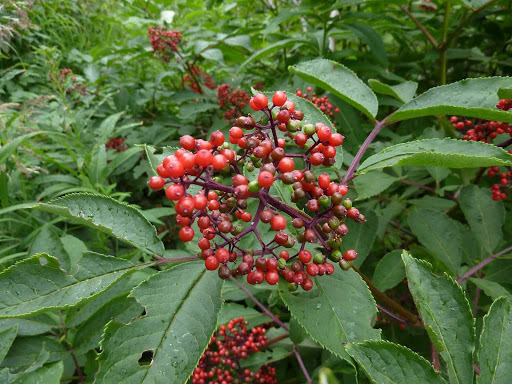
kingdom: Plantae
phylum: Tracheophyta
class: Magnoliopsida
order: Dipsacales
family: Viburnaceae
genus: Sambucus
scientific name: Sambucus racemosa
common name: Red-berried elder
